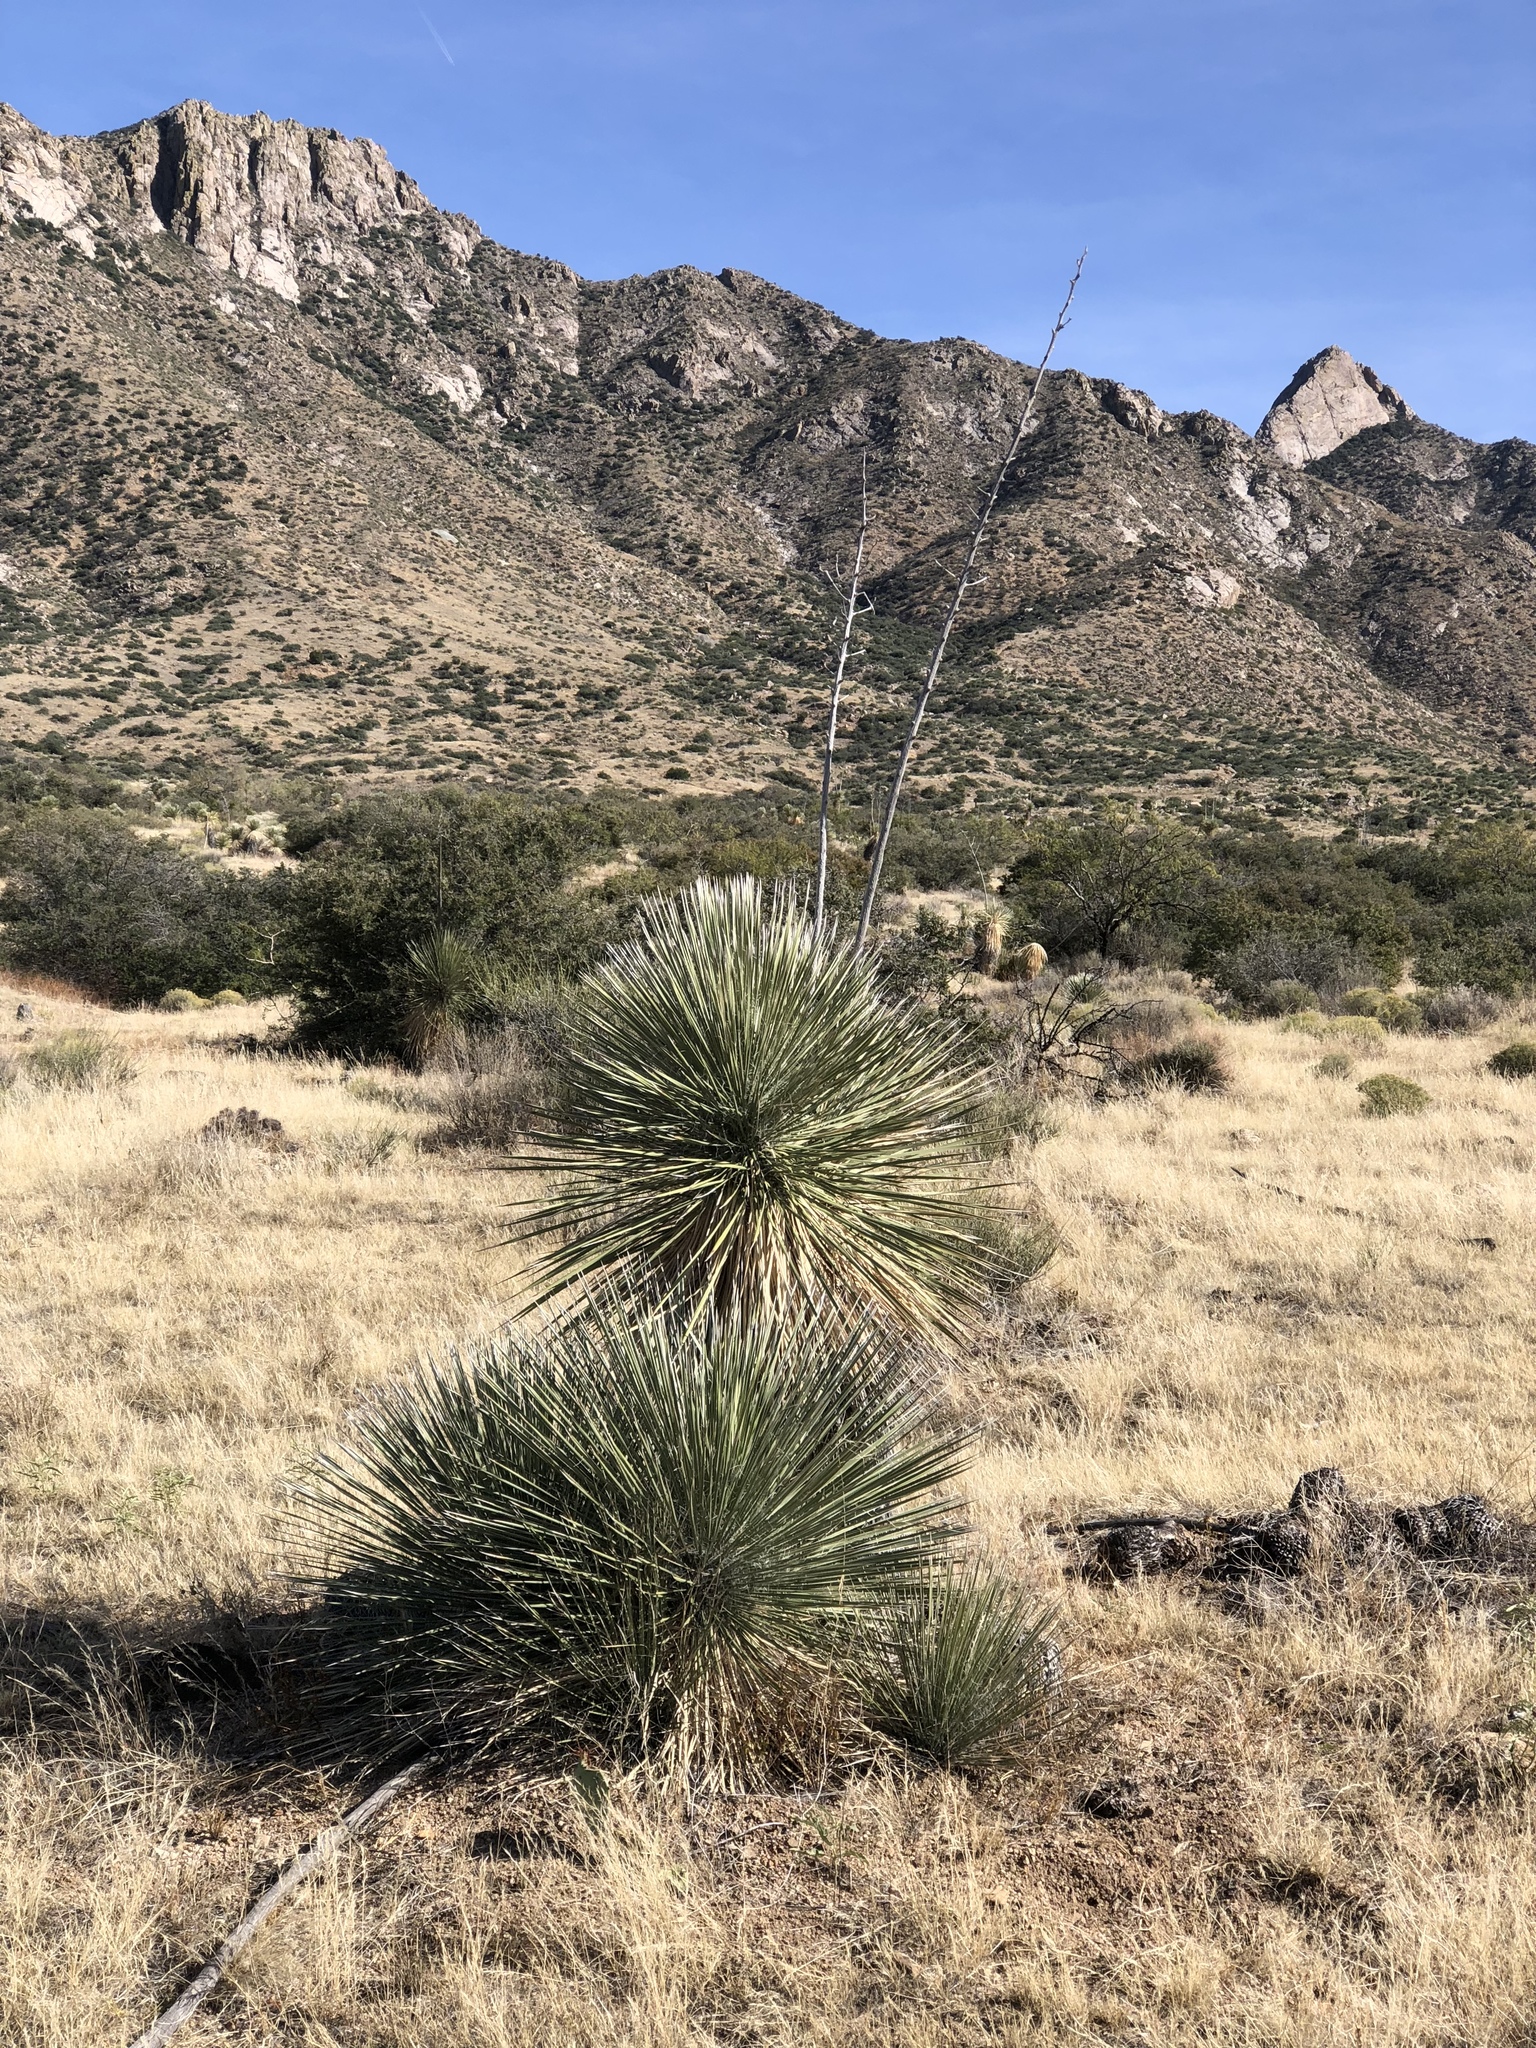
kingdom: Plantae
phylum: Tracheophyta
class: Liliopsida
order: Asparagales
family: Asparagaceae
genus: Yucca
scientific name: Yucca elata
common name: Palmella
